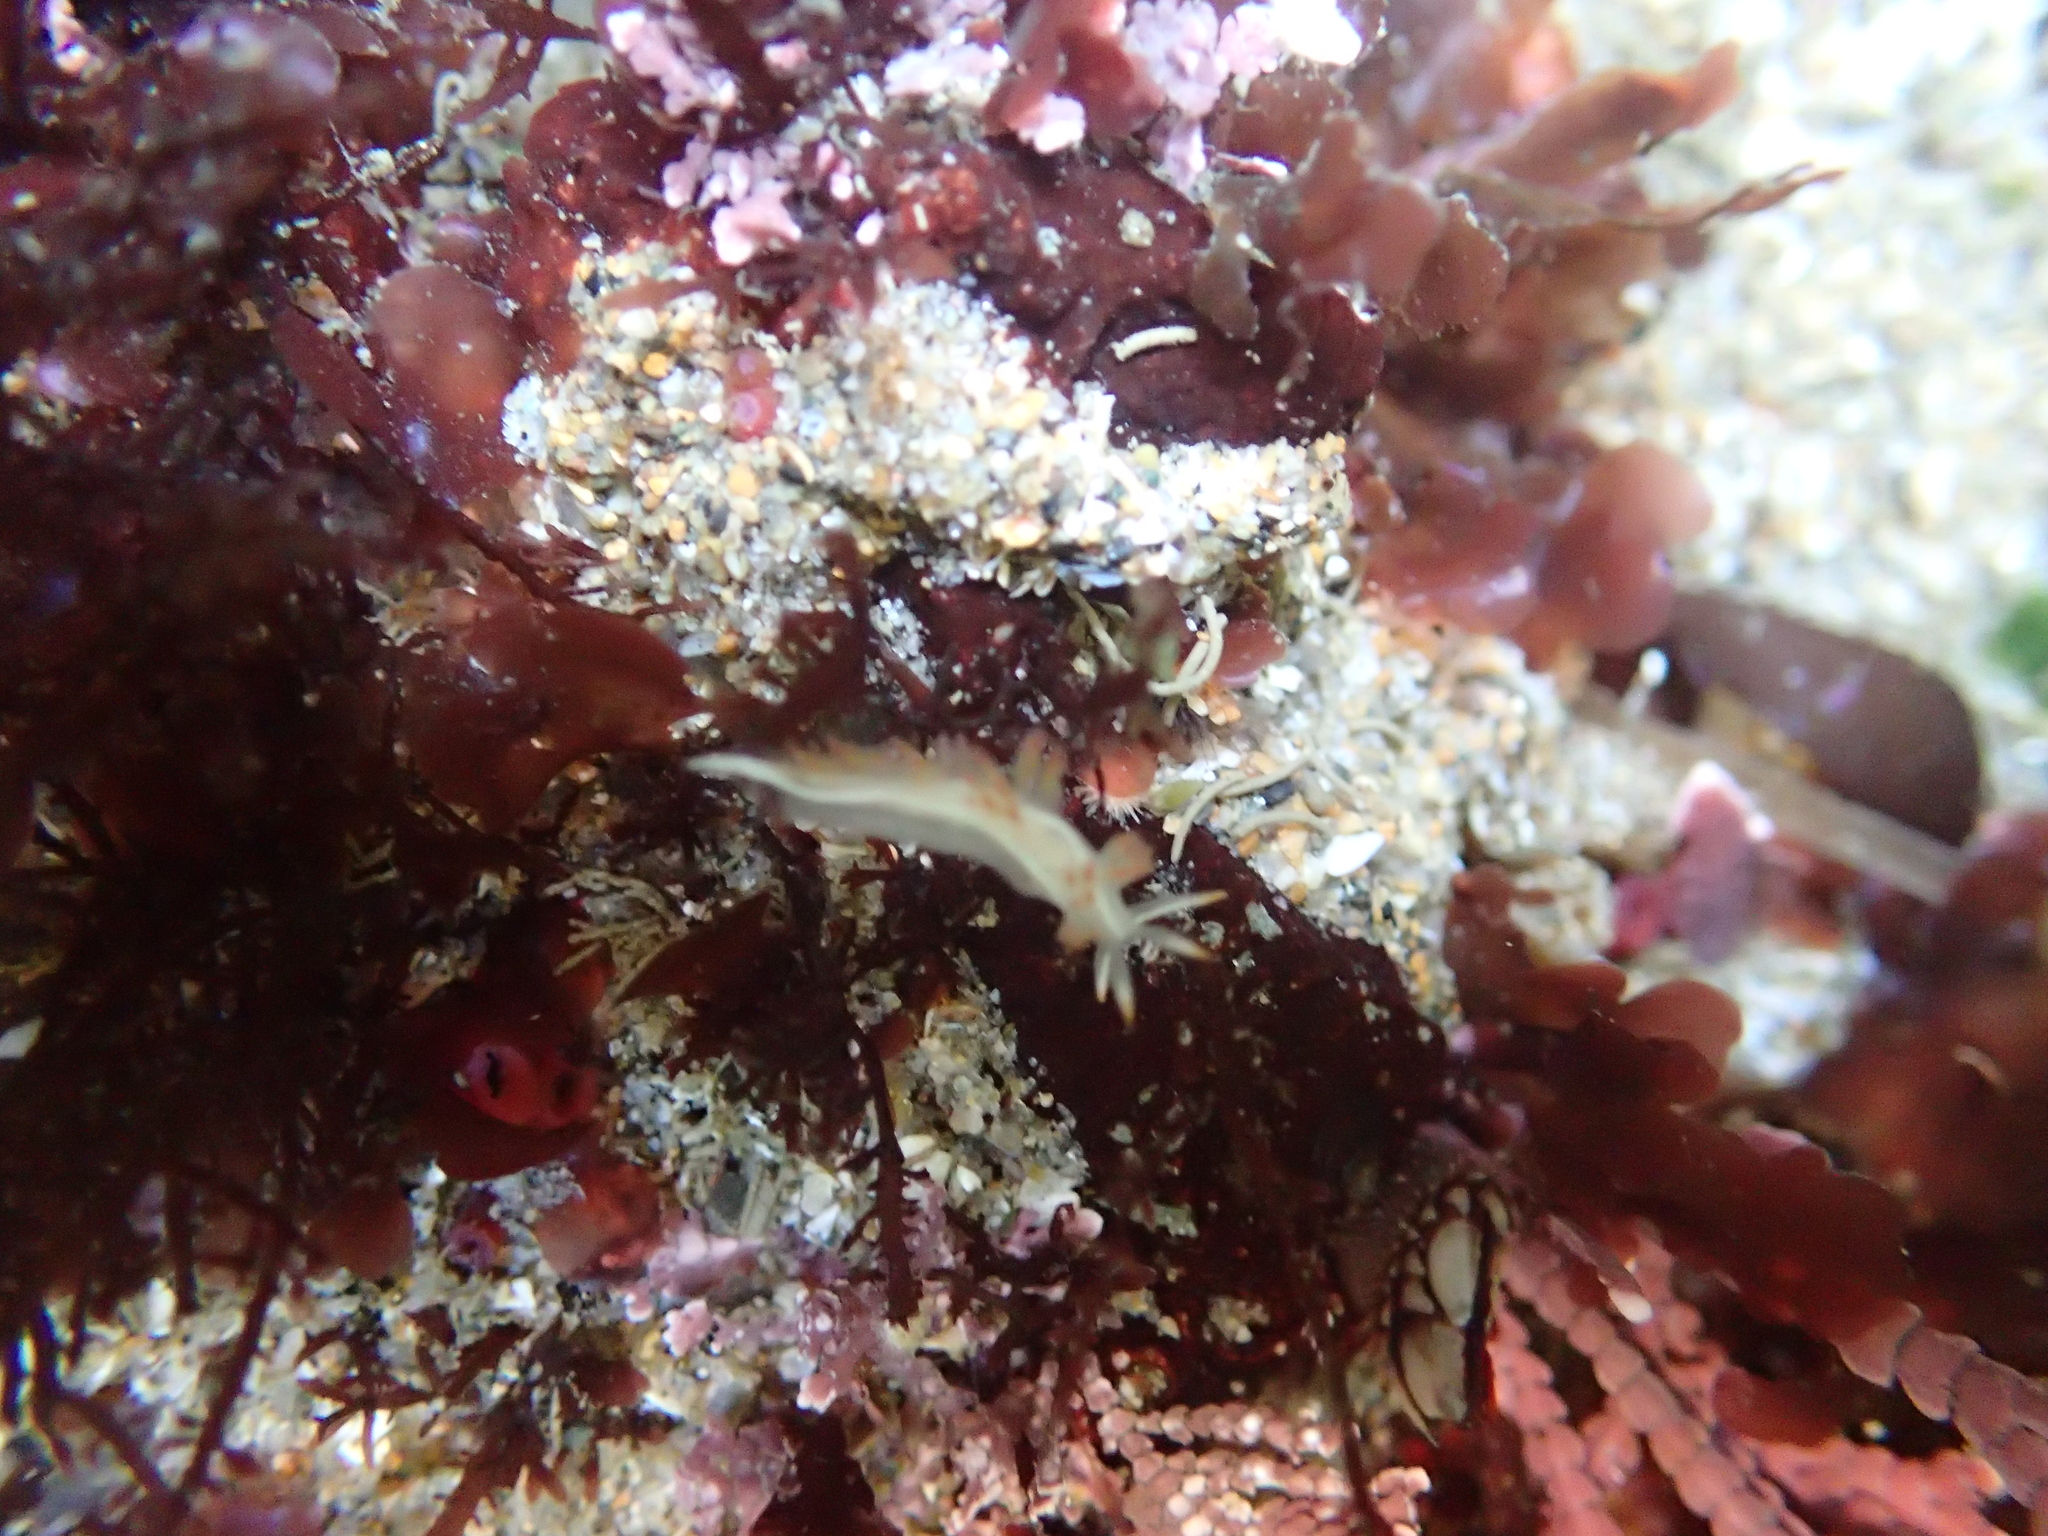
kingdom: Animalia
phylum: Mollusca
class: Gastropoda
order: Nudibranchia
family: Coryphellidae
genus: Coryphella
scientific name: Coryphella trilineata
